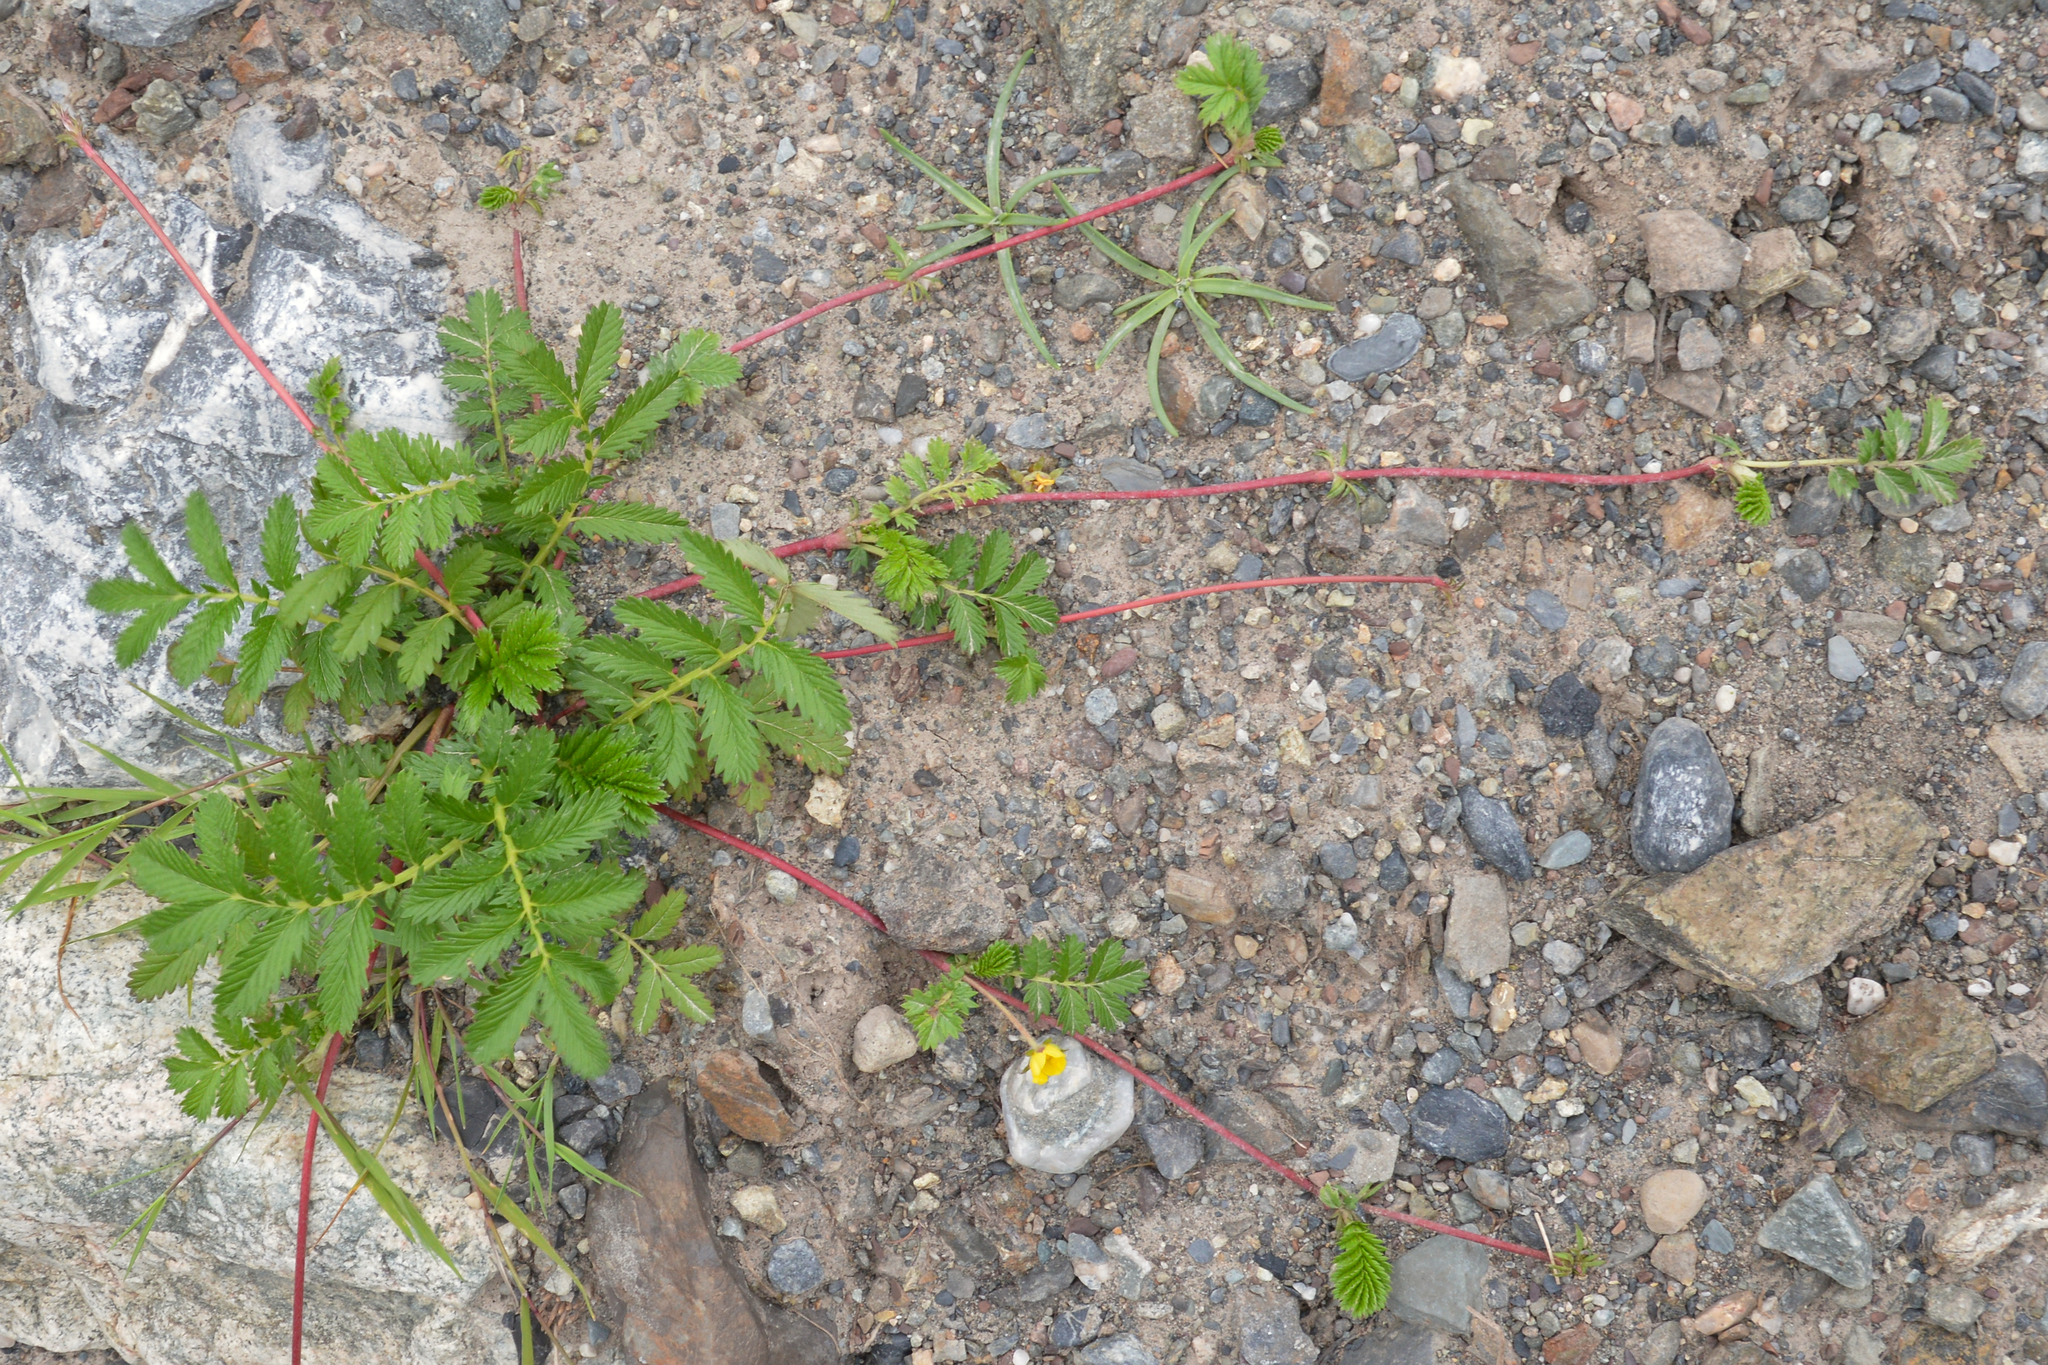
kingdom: Plantae
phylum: Tracheophyta
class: Magnoliopsida
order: Rosales
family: Rosaceae
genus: Argentina
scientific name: Argentina anserina
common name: Common silverweed
